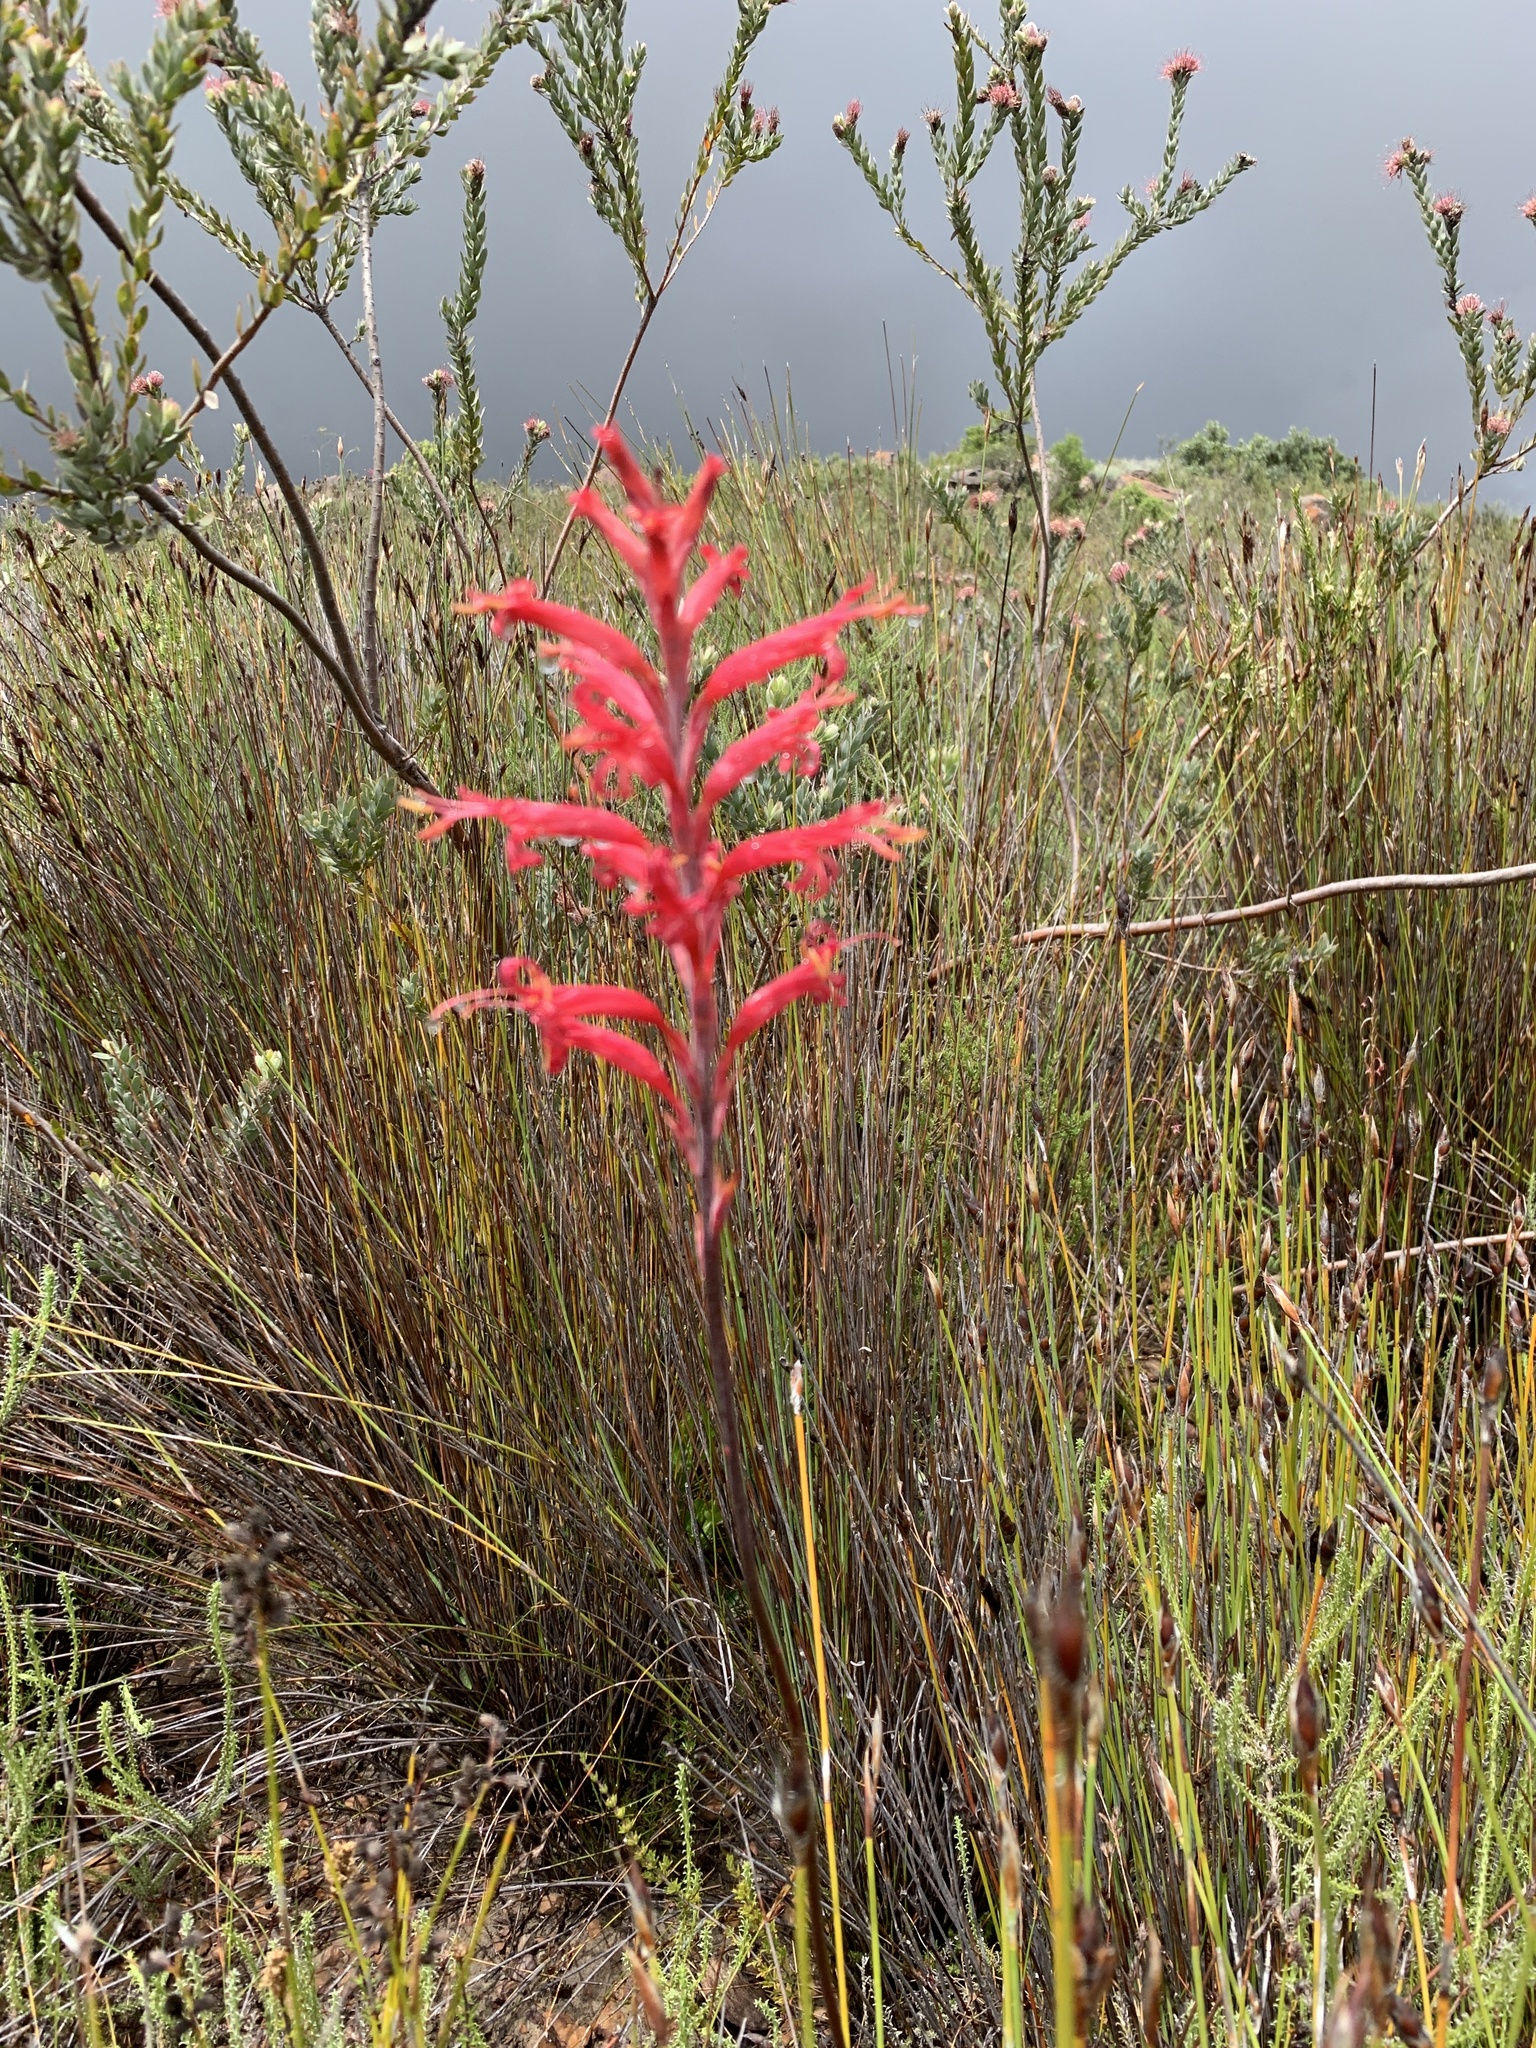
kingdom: Plantae
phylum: Tracheophyta
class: Liliopsida
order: Asparagales
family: Iridaceae
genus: Tritoniopsis
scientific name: Tritoniopsis antholyza
